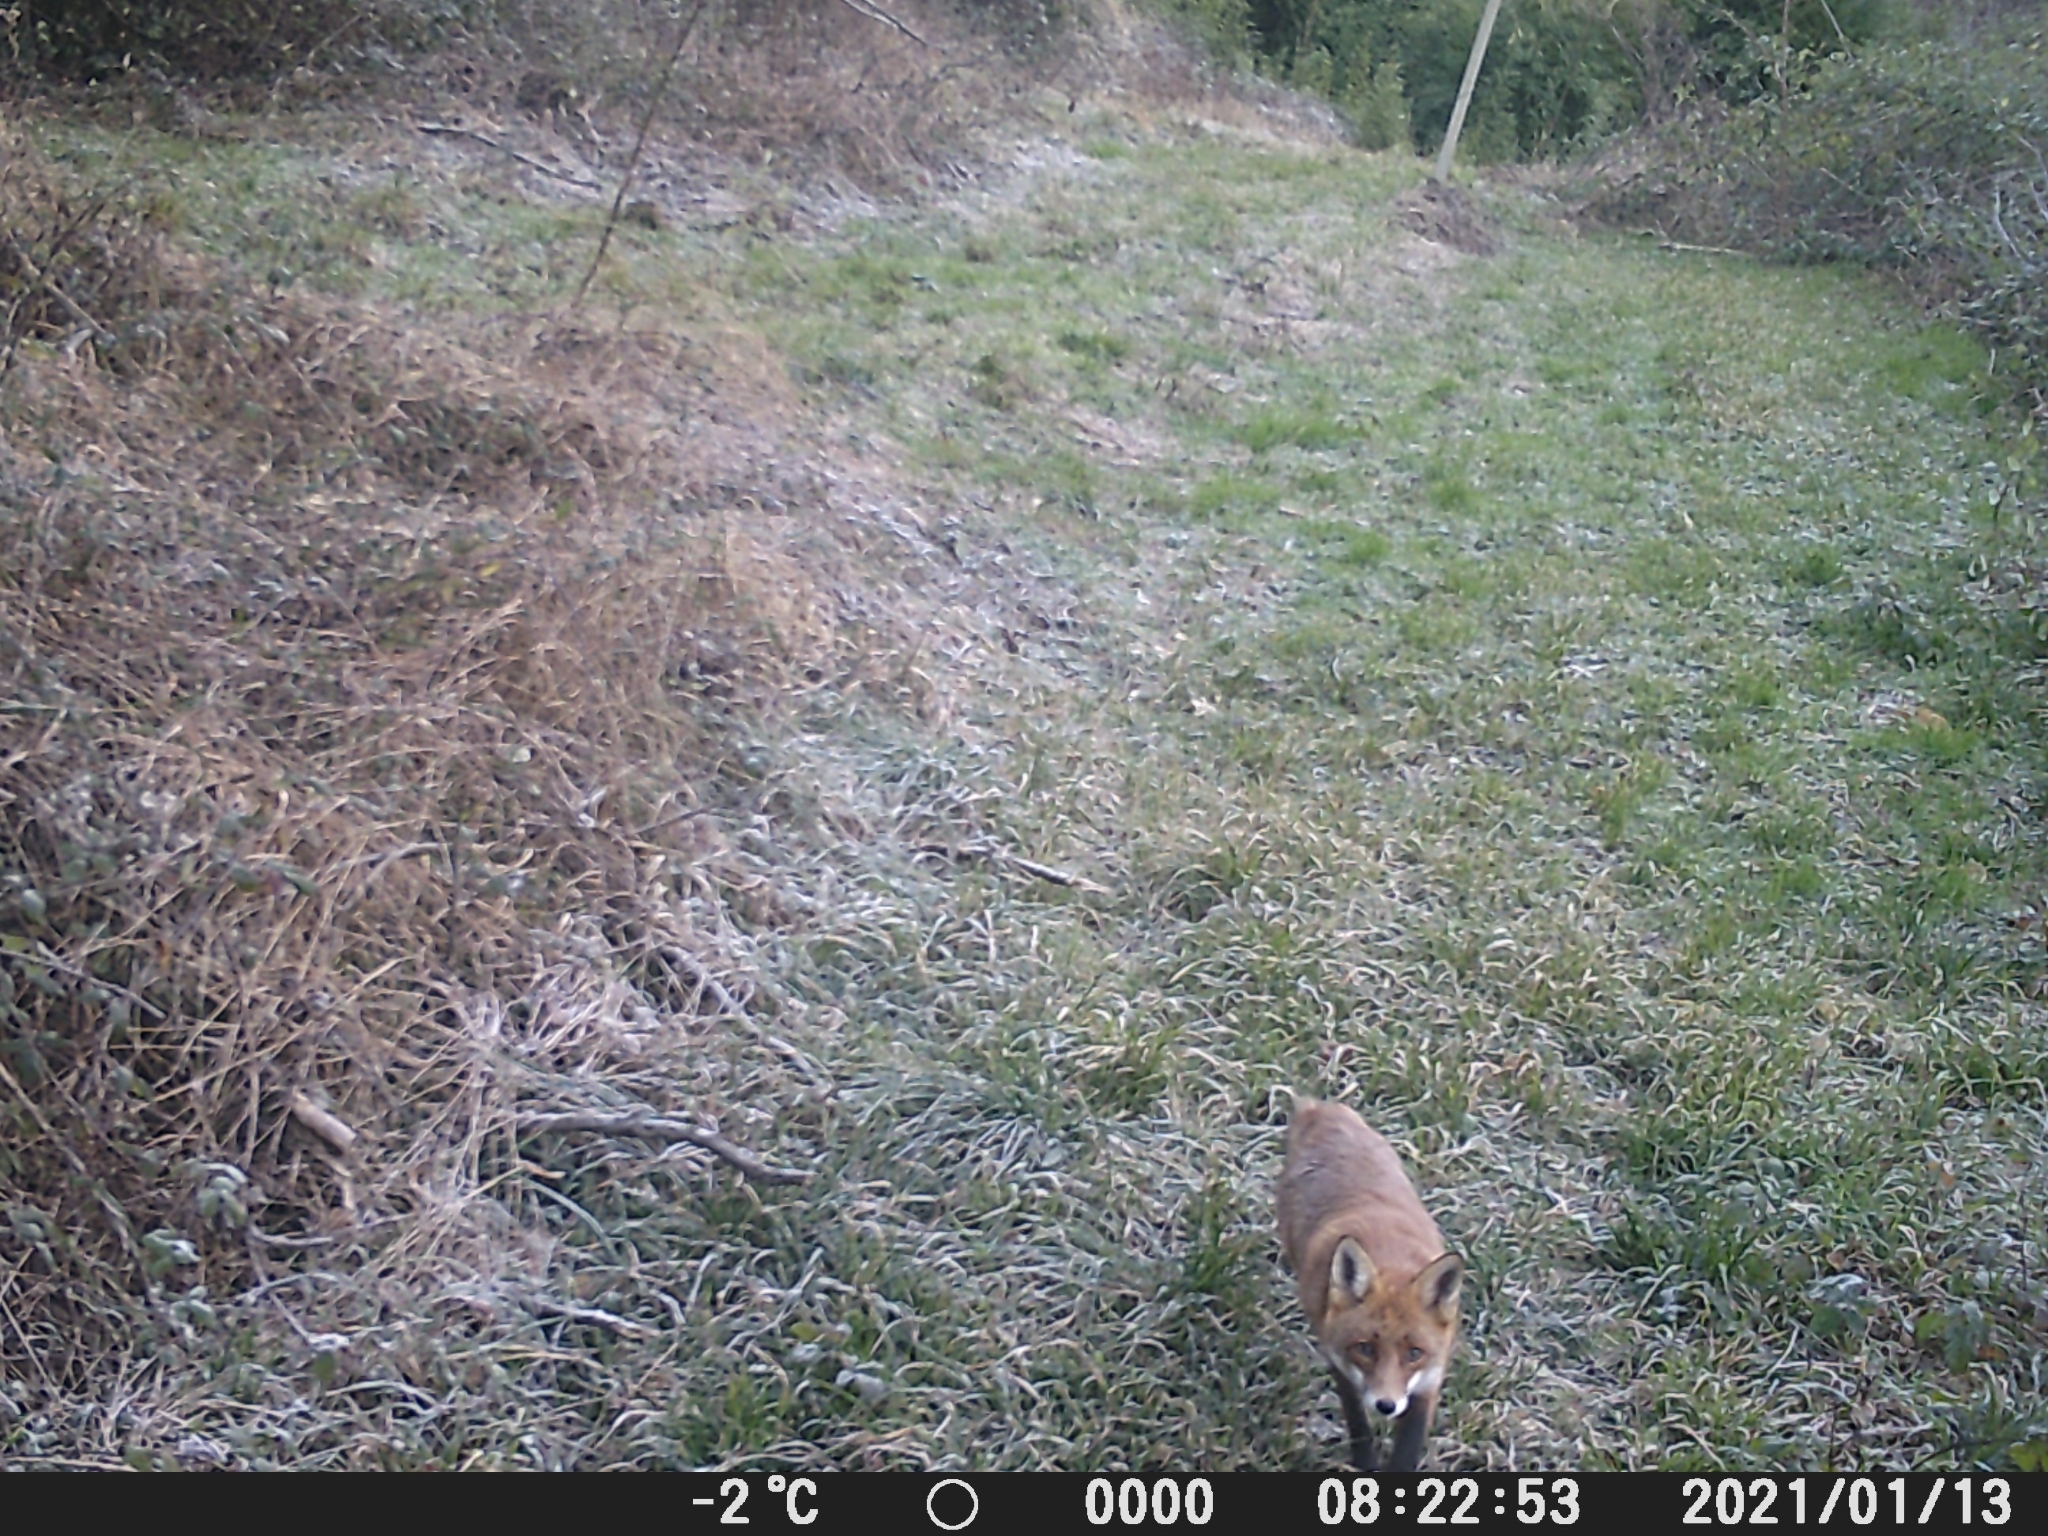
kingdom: Animalia
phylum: Chordata
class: Mammalia
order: Carnivora
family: Canidae
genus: Vulpes
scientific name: Vulpes vulpes
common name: Red fox
